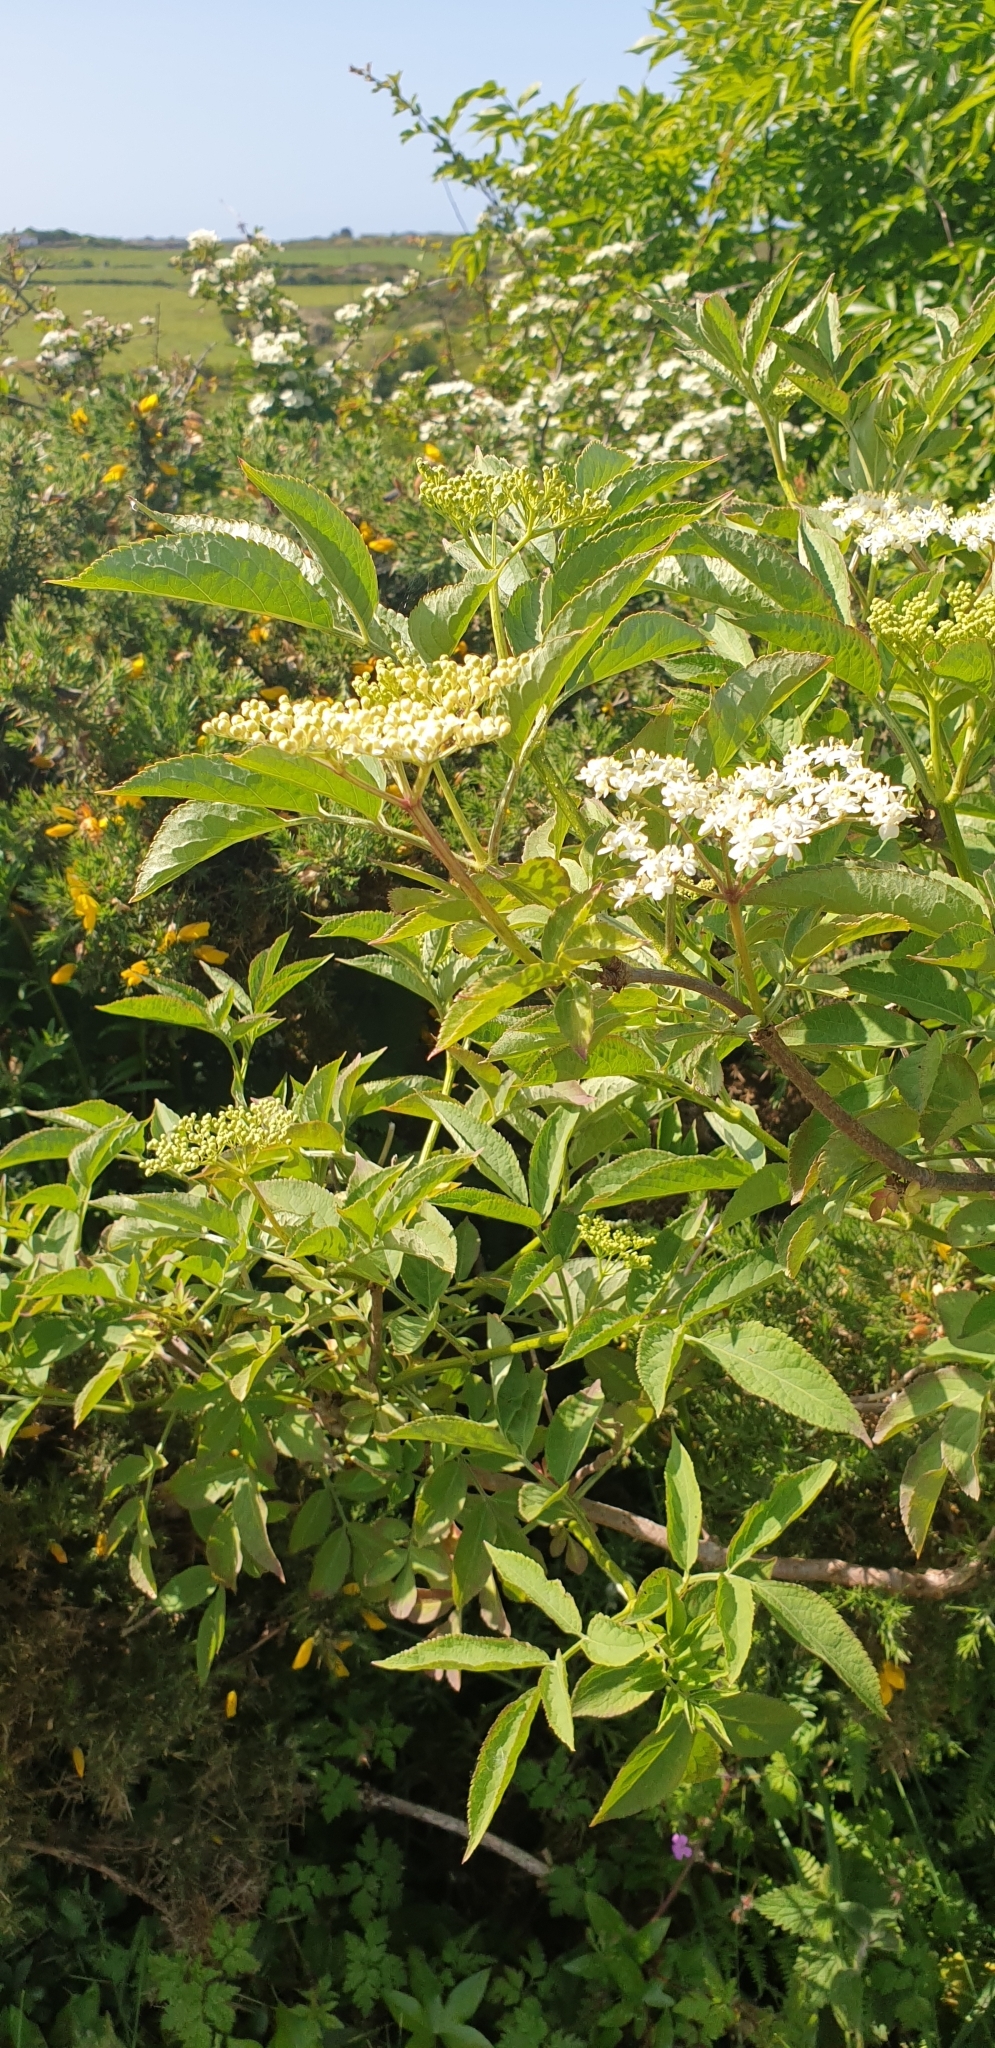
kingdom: Plantae
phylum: Tracheophyta
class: Magnoliopsida
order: Dipsacales
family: Viburnaceae
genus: Sambucus
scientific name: Sambucus nigra
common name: Elder
